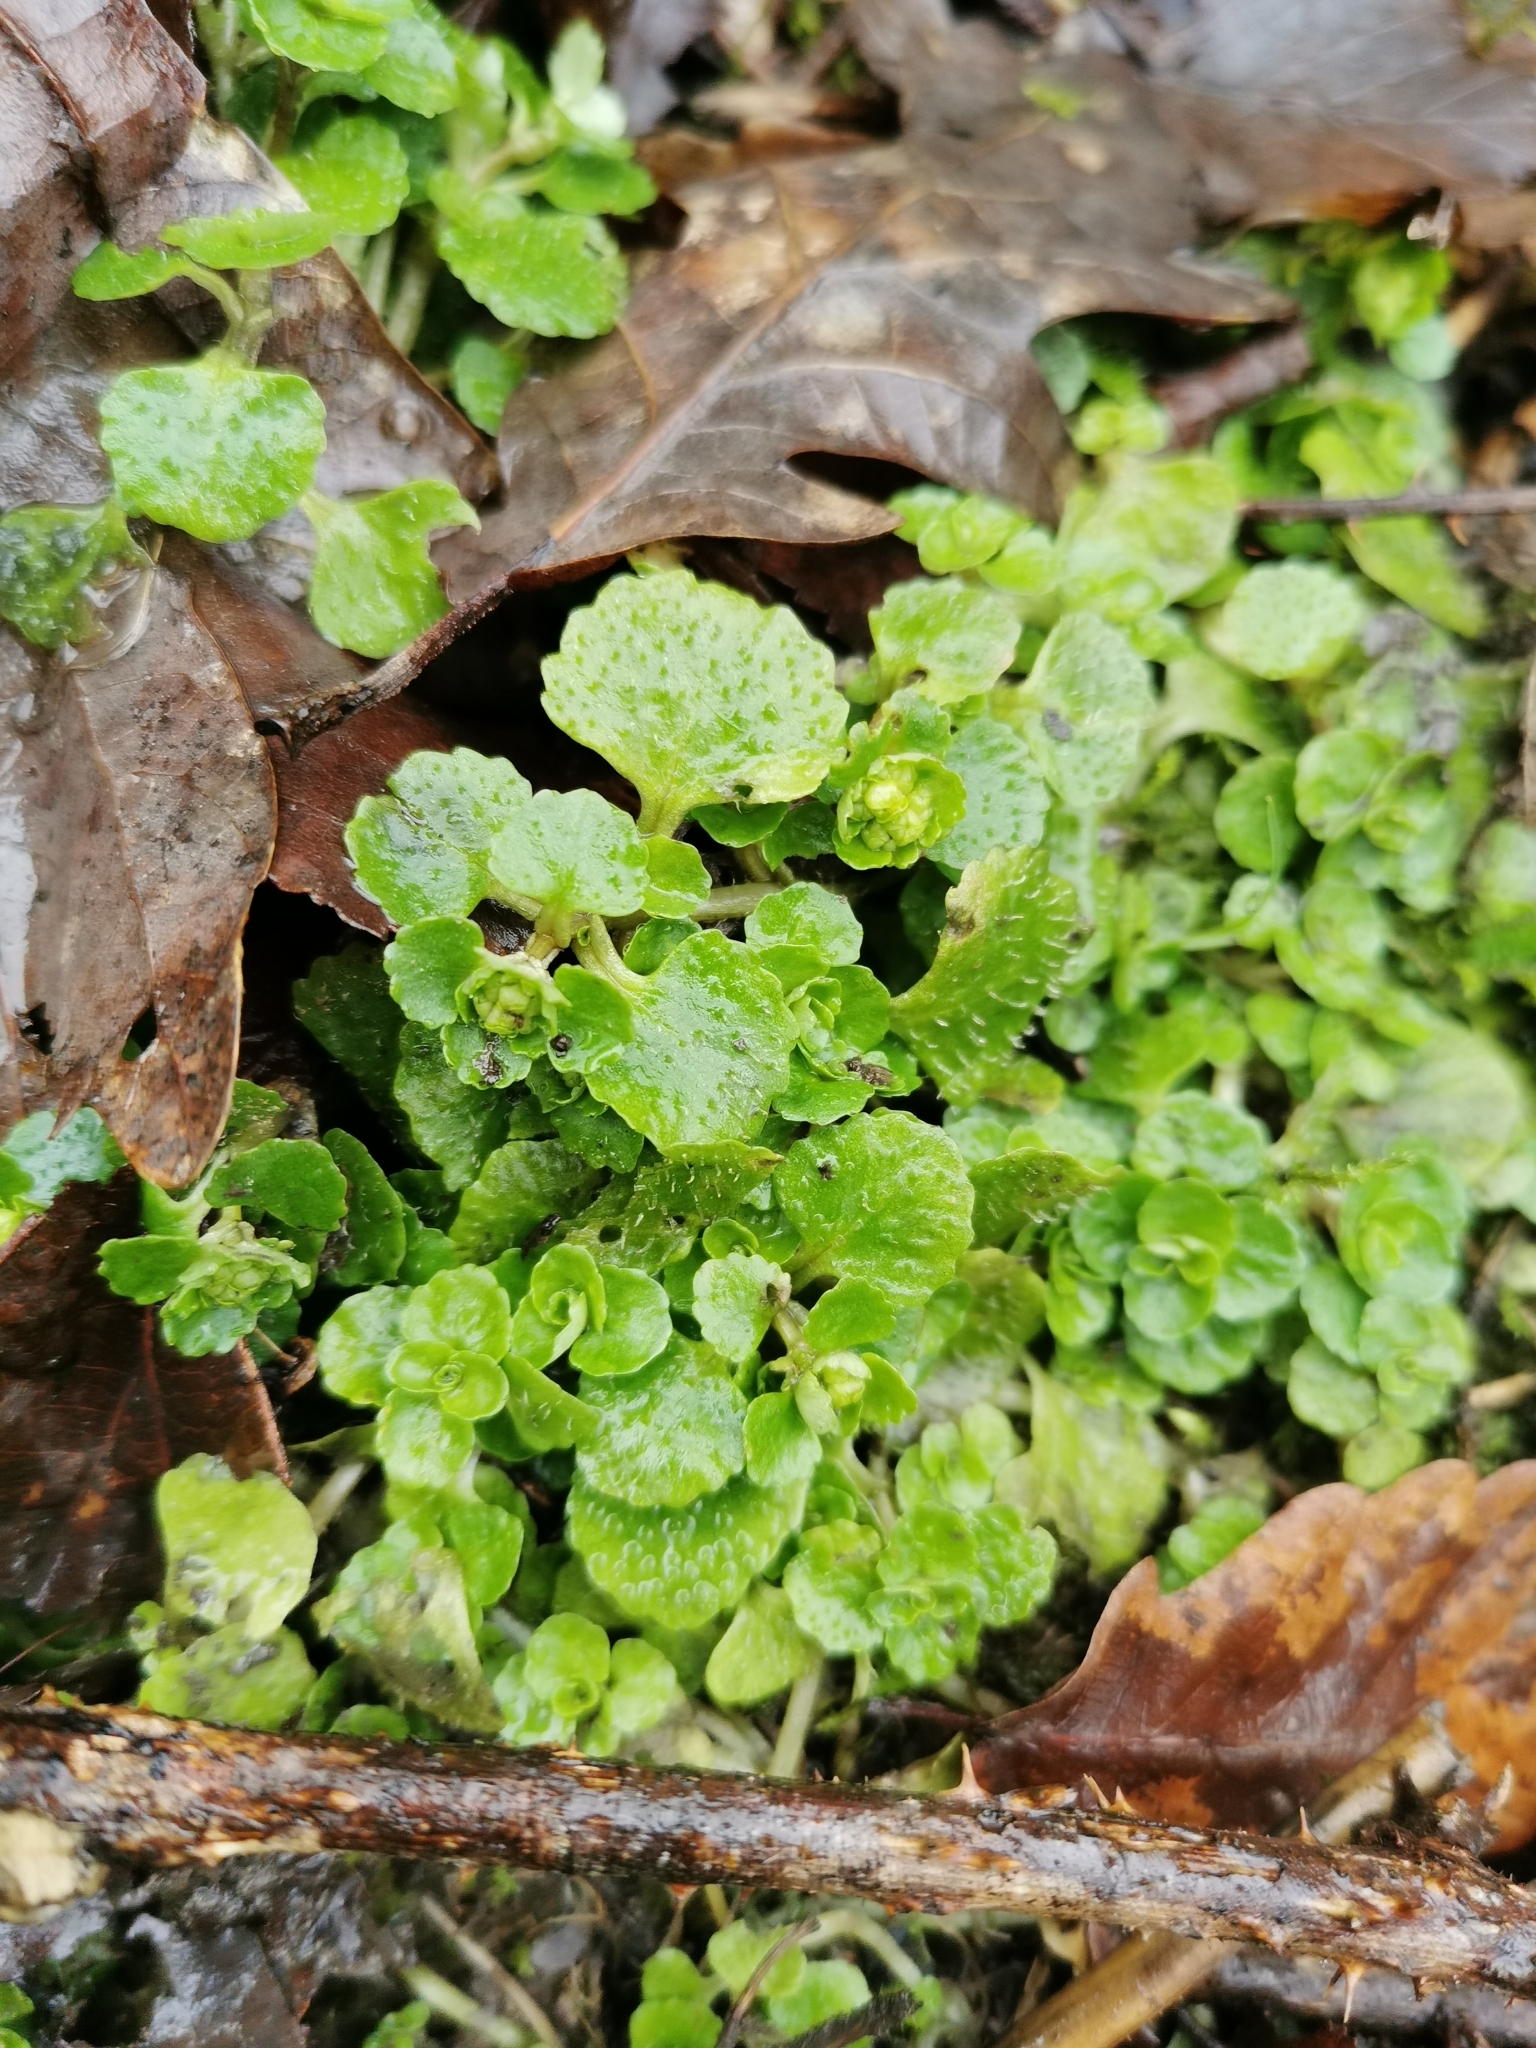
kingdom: Plantae
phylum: Tracheophyta
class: Magnoliopsida
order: Saxifragales
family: Saxifragaceae
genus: Chrysosplenium
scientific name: Chrysosplenium oppositifolium
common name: Opposite-leaved golden-saxifrage
